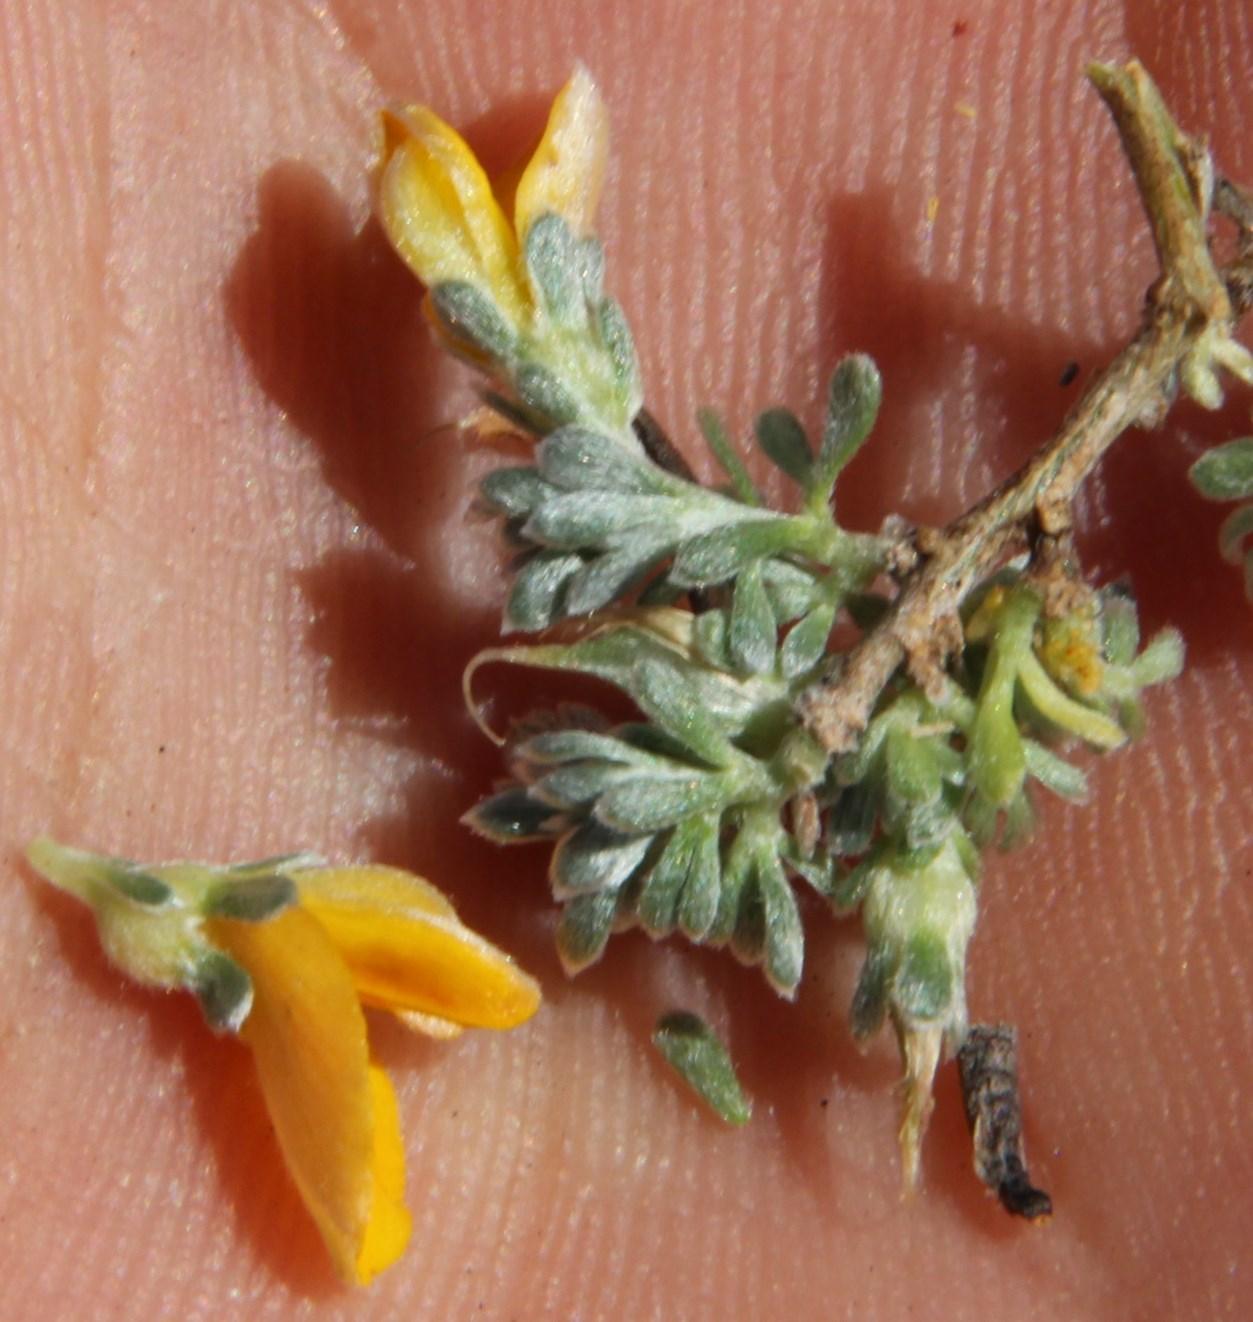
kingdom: Plantae
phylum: Tracheophyta
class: Magnoliopsida
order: Fabales
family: Fabaceae
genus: Aspalathus
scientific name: Aspalathus bodkinii
